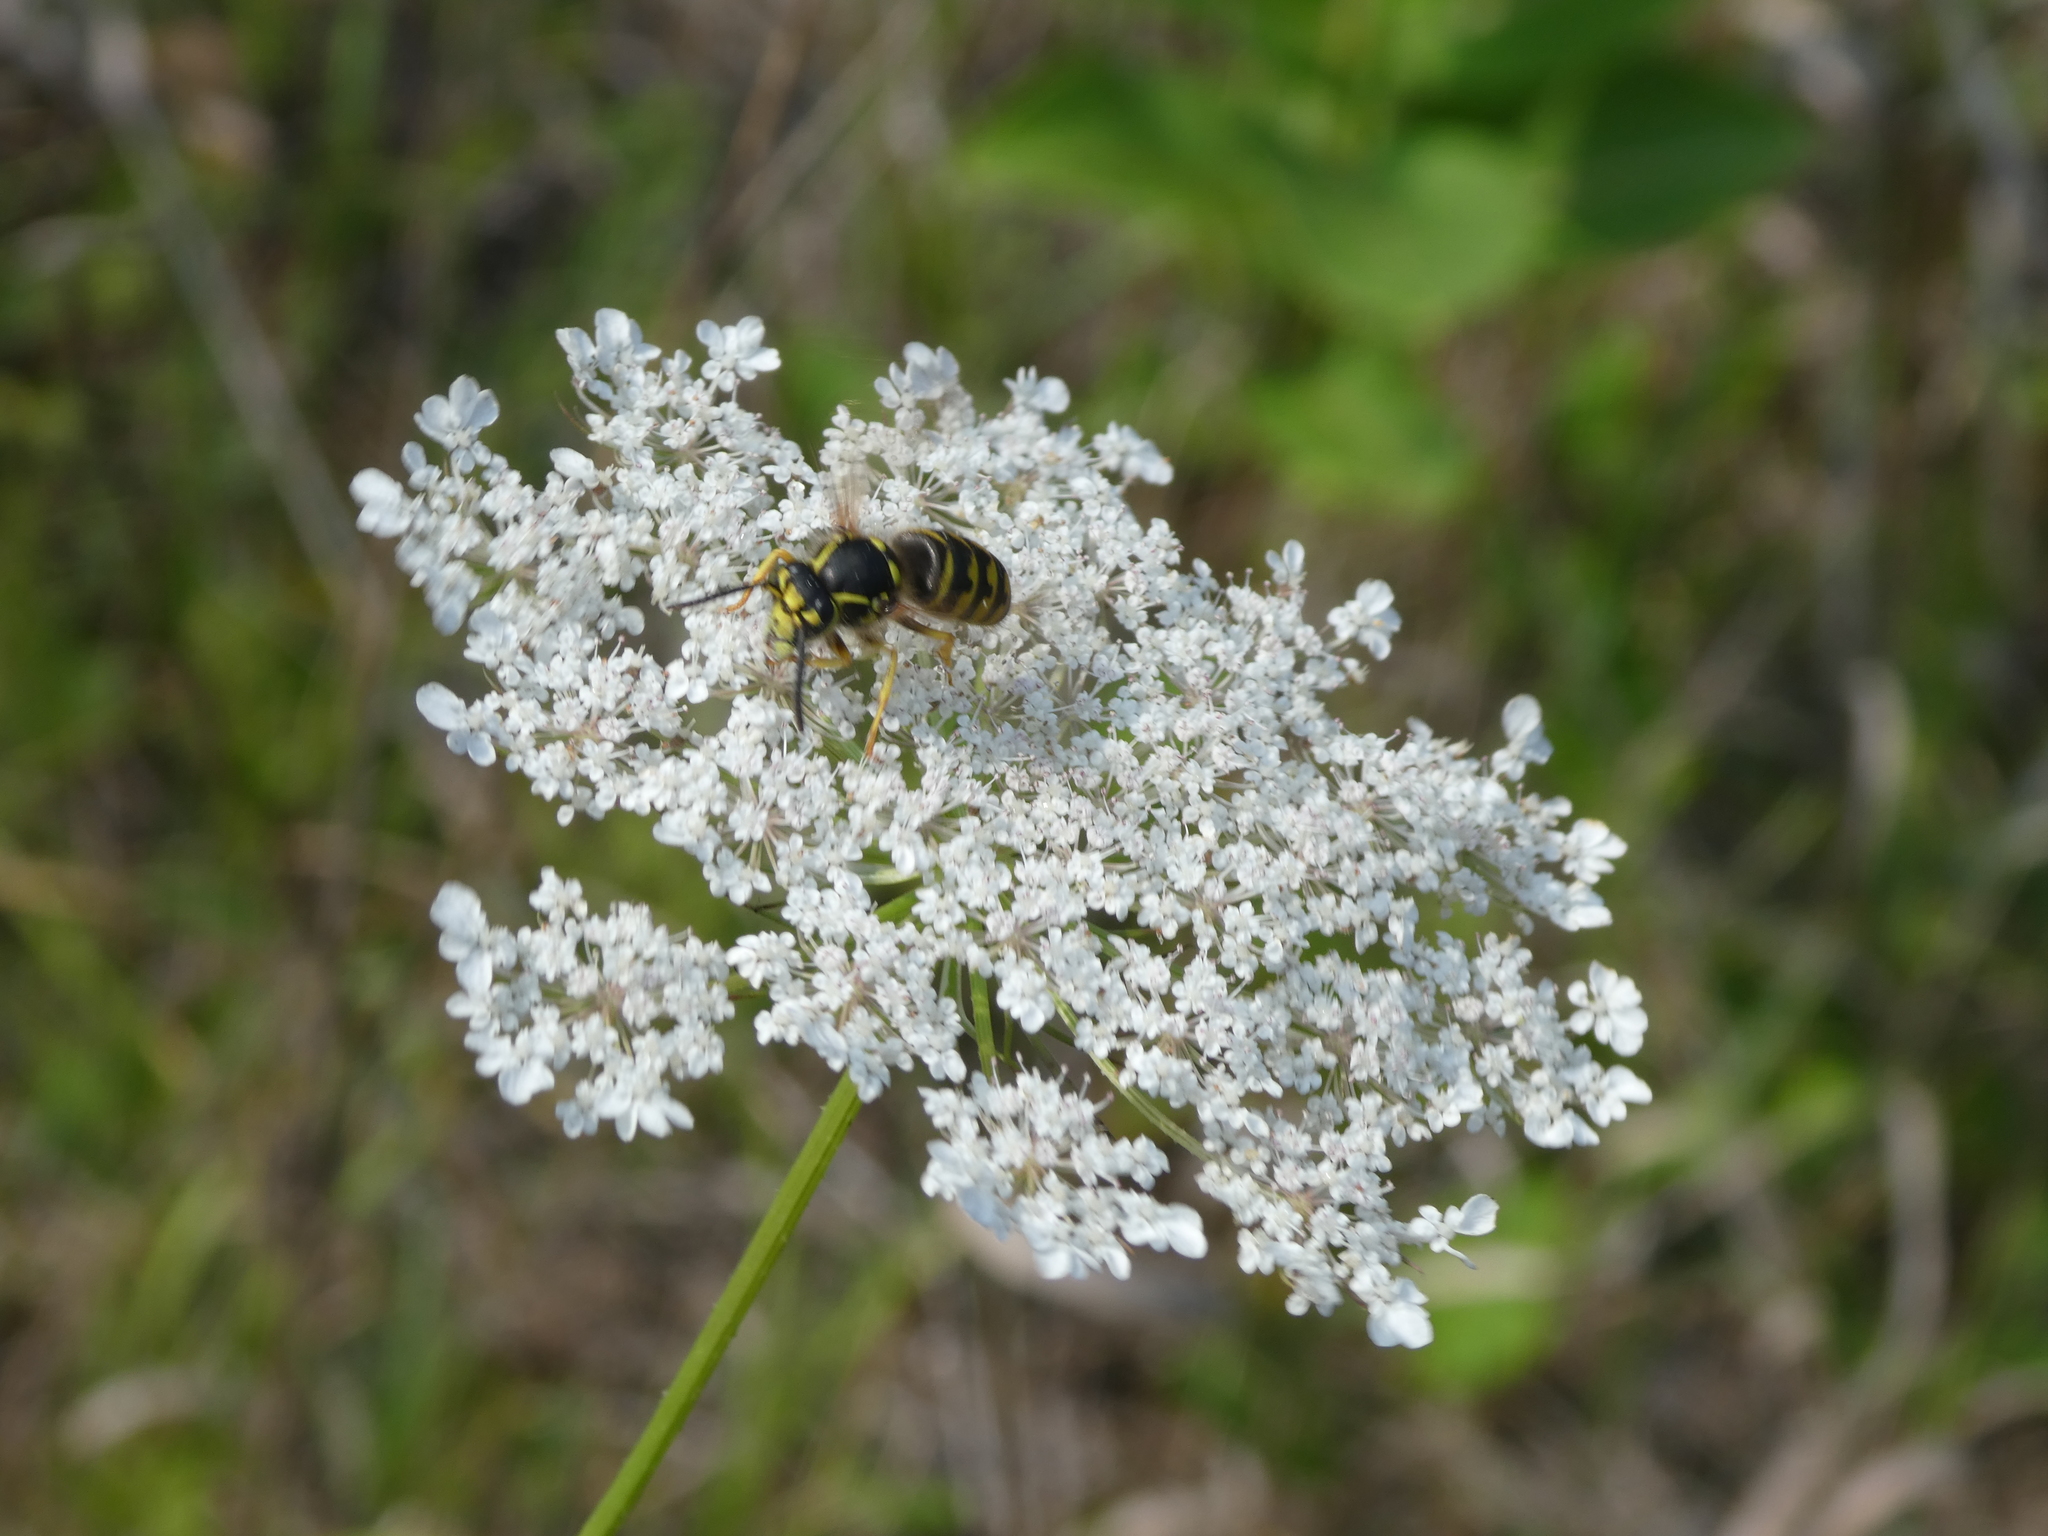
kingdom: Animalia
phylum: Arthropoda
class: Insecta
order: Hymenoptera
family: Vespidae
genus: Dolichovespula
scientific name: Dolichovespula arenaria
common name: Aerial yellowjacket
